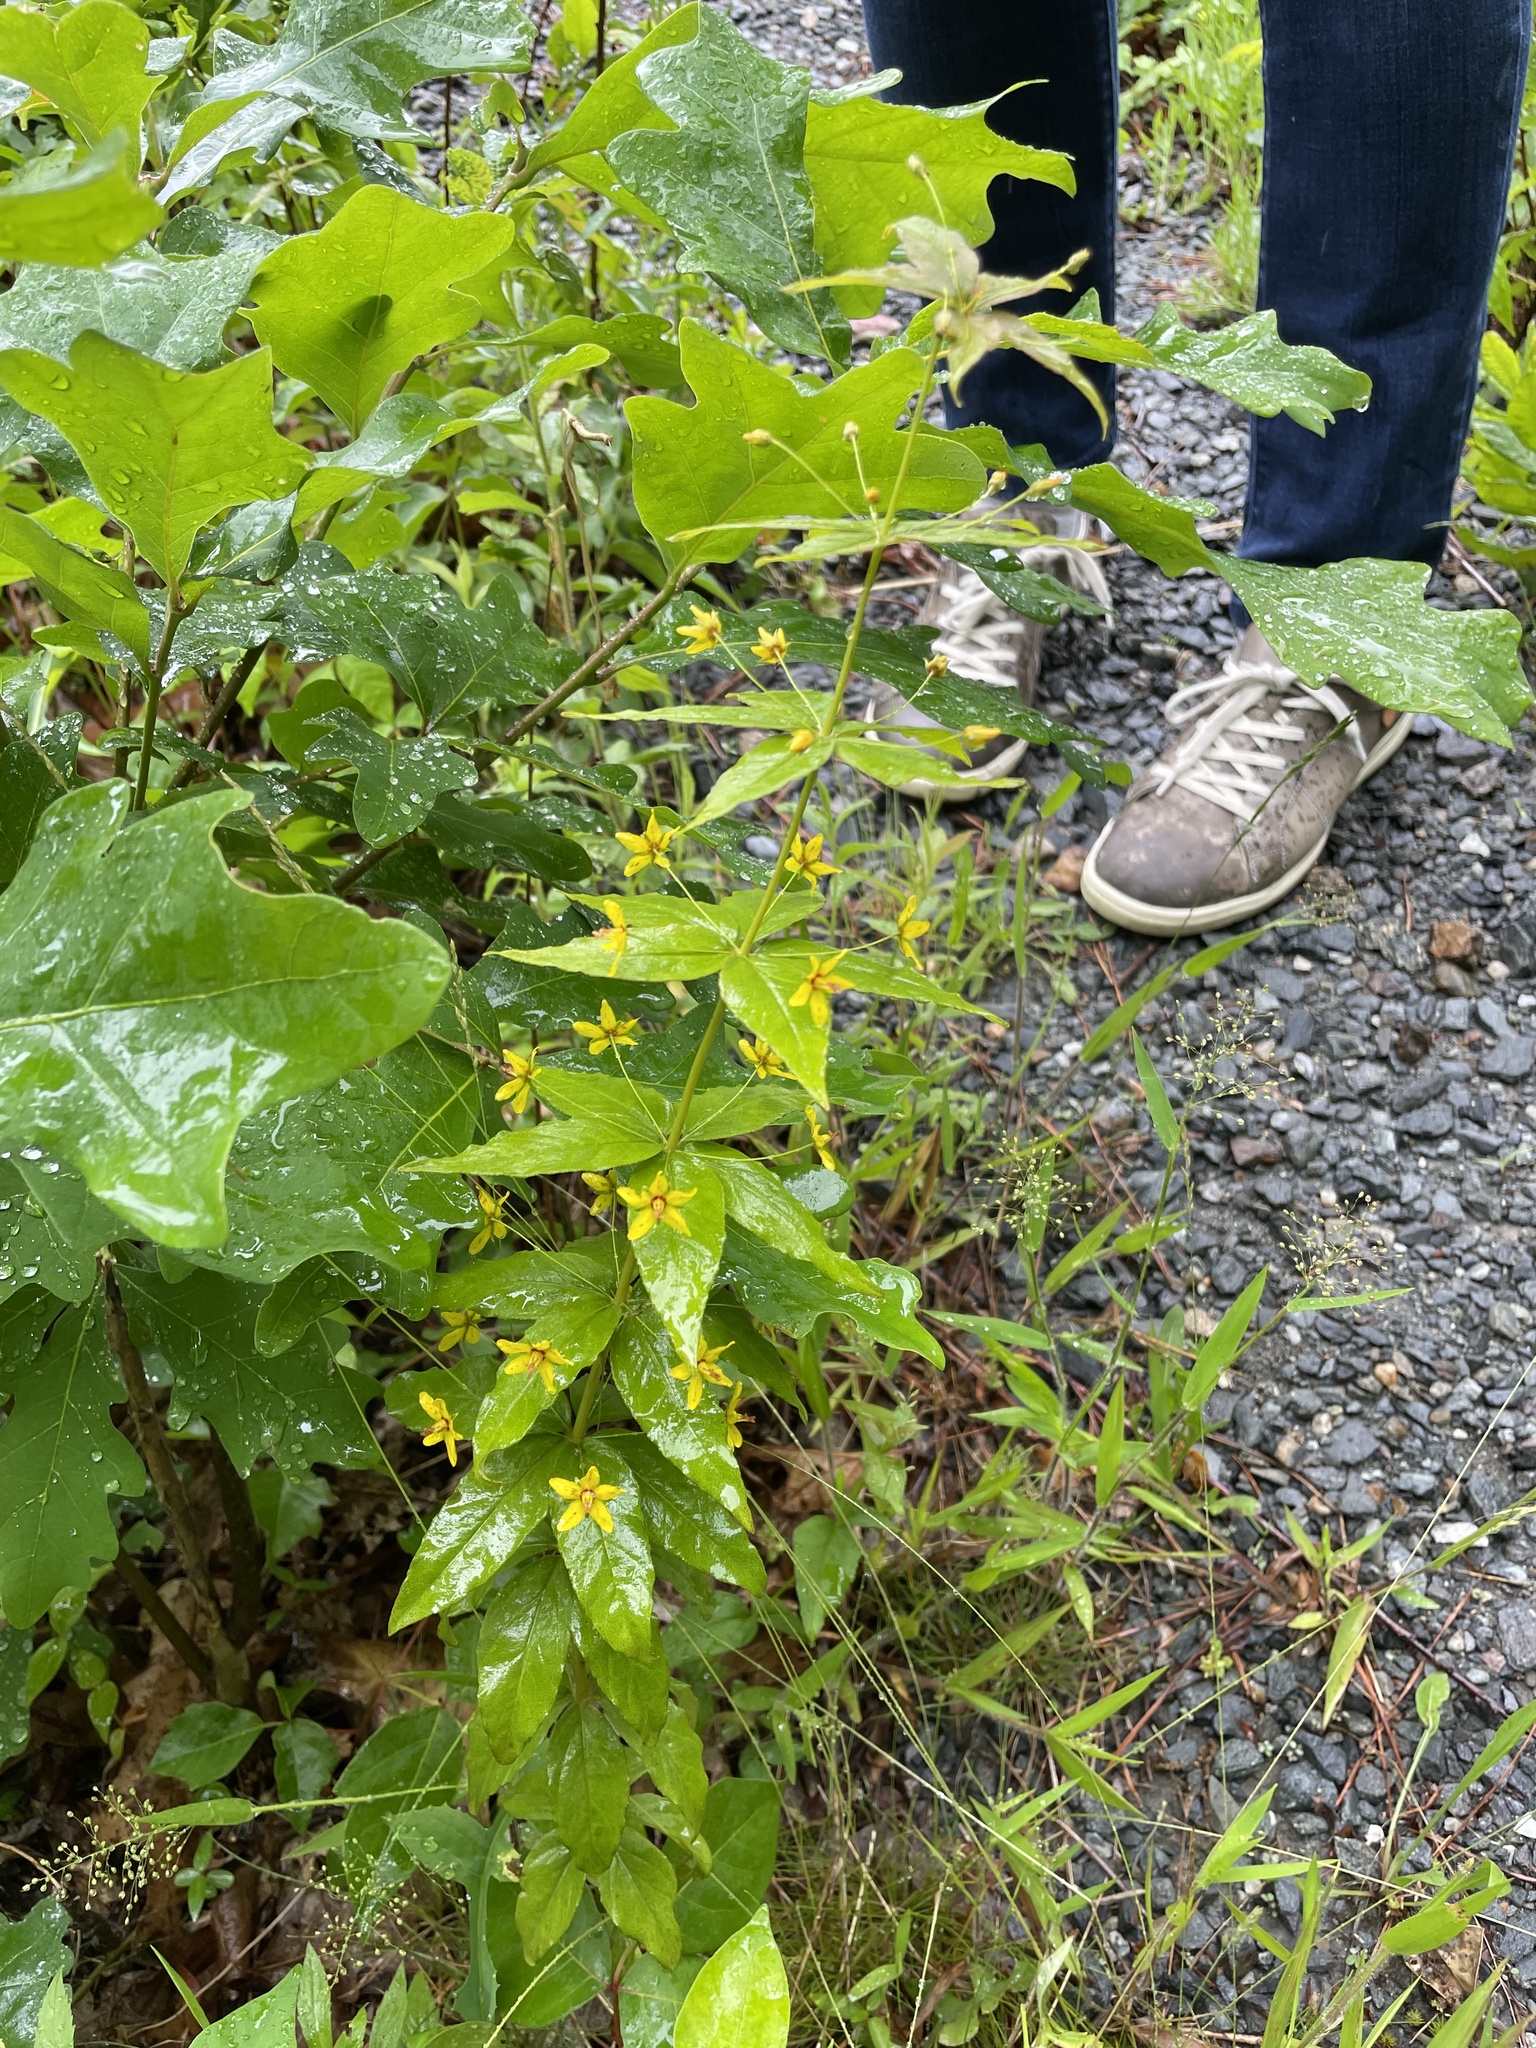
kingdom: Plantae
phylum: Tracheophyta
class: Magnoliopsida
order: Ericales
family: Primulaceae
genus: Lysimachia
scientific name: Lysimachia quadrifolia
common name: Whorled loosestrife
